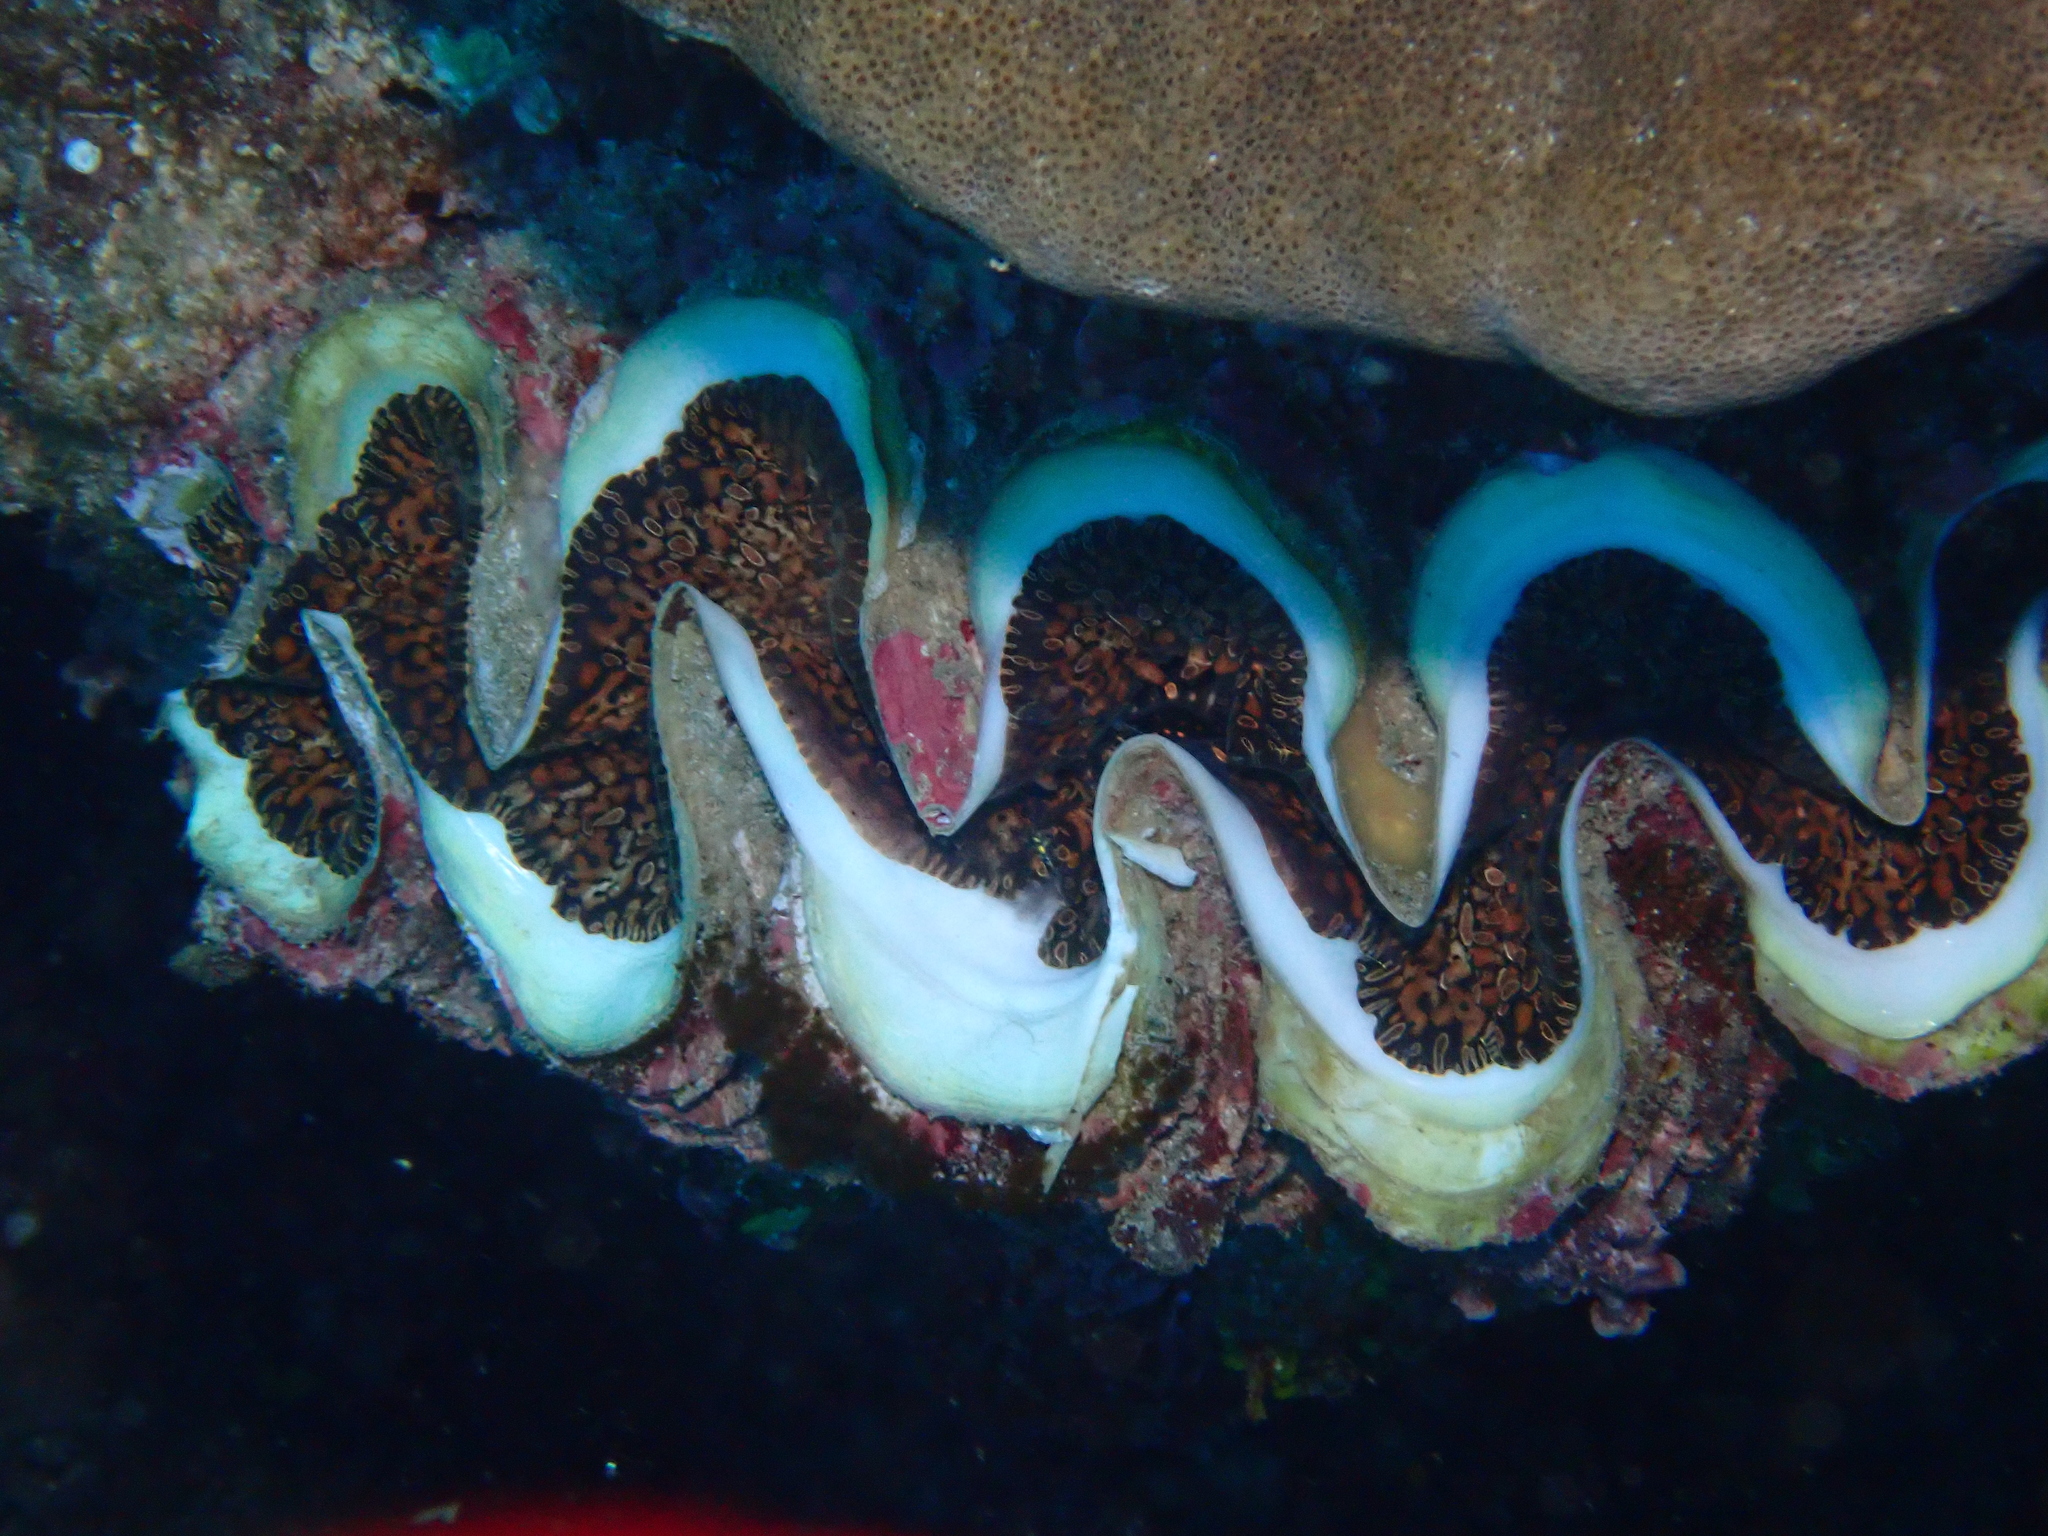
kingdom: Animalia
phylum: Mollusca
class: Bivalvia
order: Cardiida
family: Cardiidae
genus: Tridacna
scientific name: Tridacna noae
